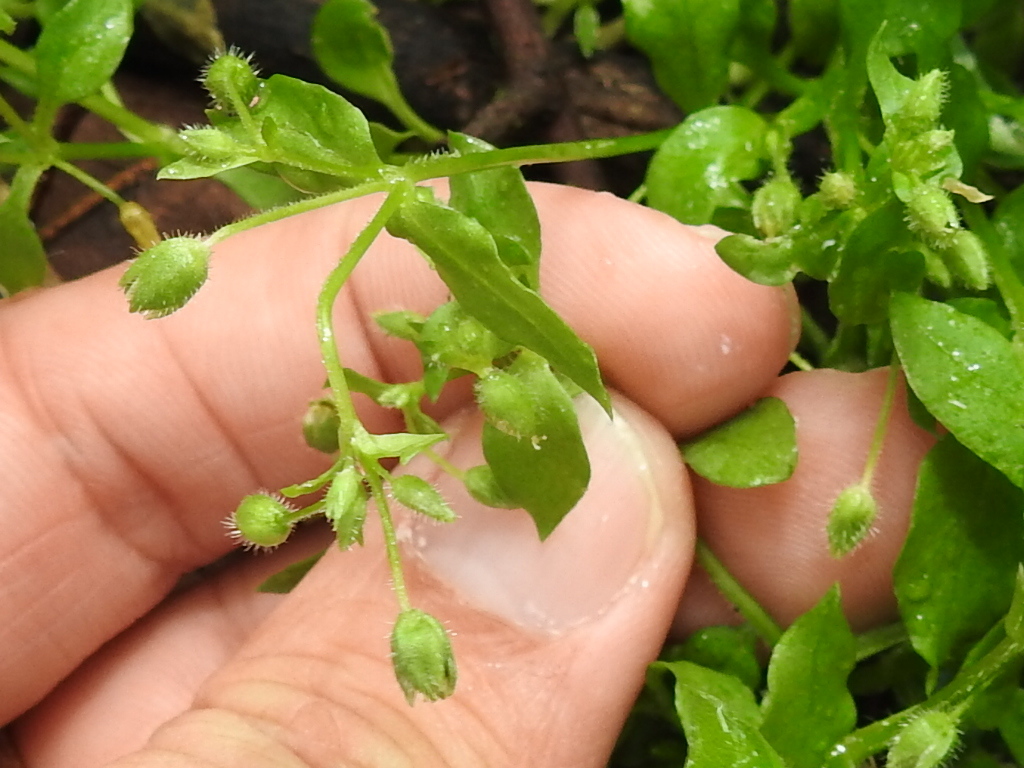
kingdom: Plantae
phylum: Tracheophyta
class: Magnoliopsida
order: Caryophyllales
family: Caryophyllaceae
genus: Stellaria
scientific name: Stellaria media
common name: Common chickweed
